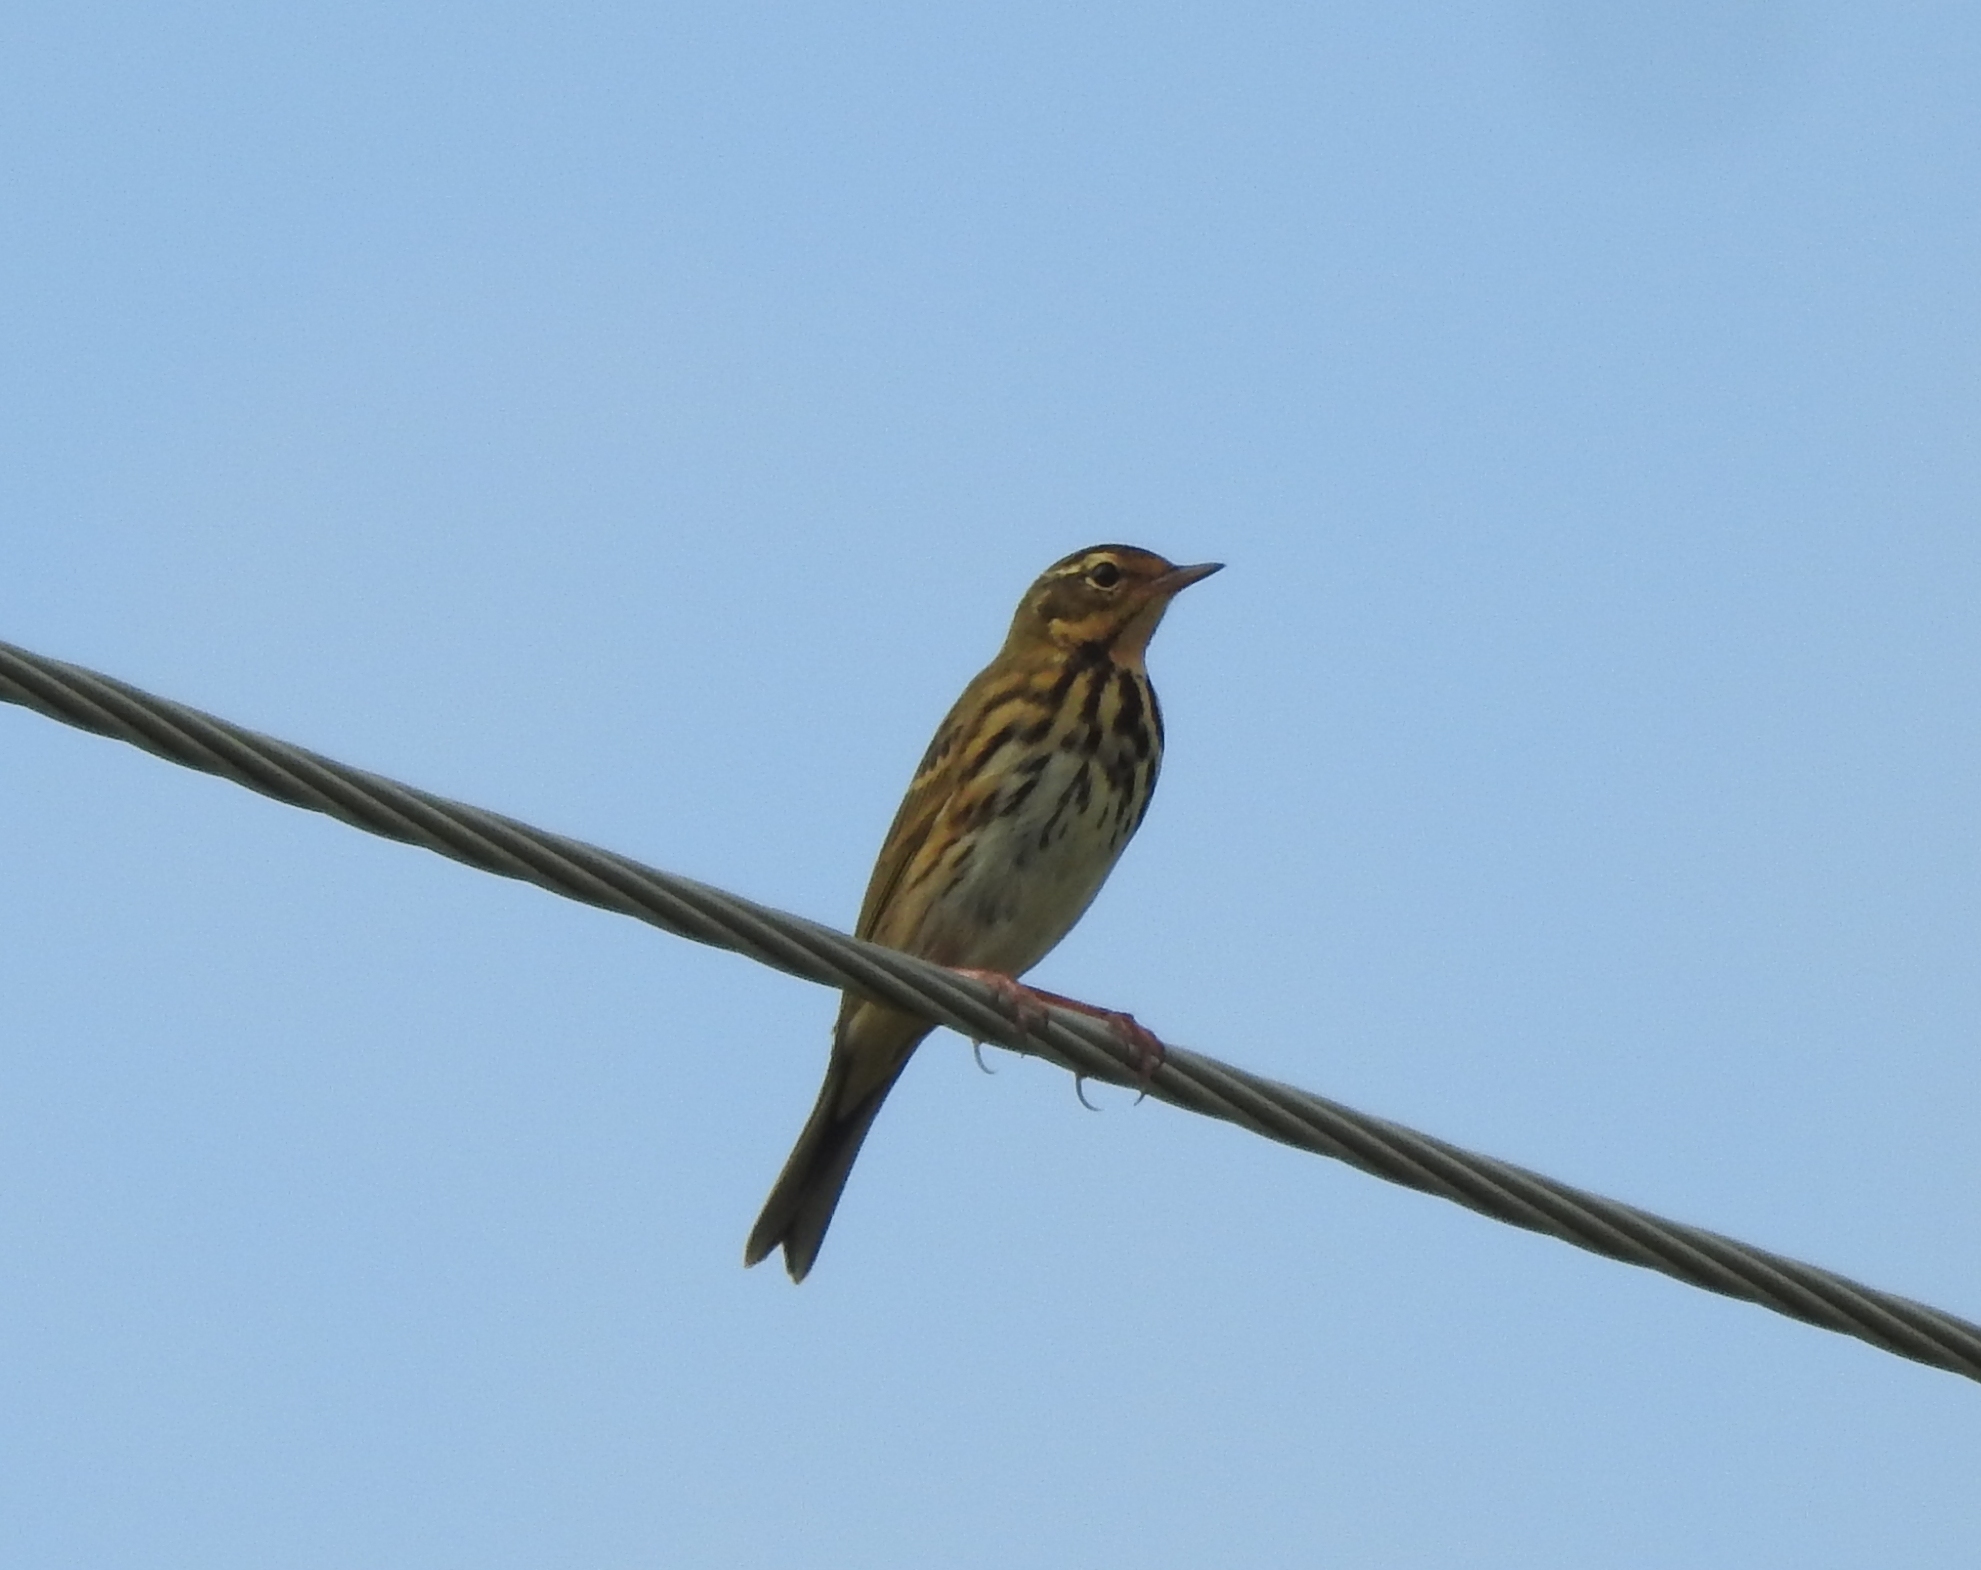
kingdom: Animalia
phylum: Chordata
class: Aves
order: Passeriformes
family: Motacillidae
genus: Anthus
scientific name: Anthus hodgsoni
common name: Olive-backed pipit
